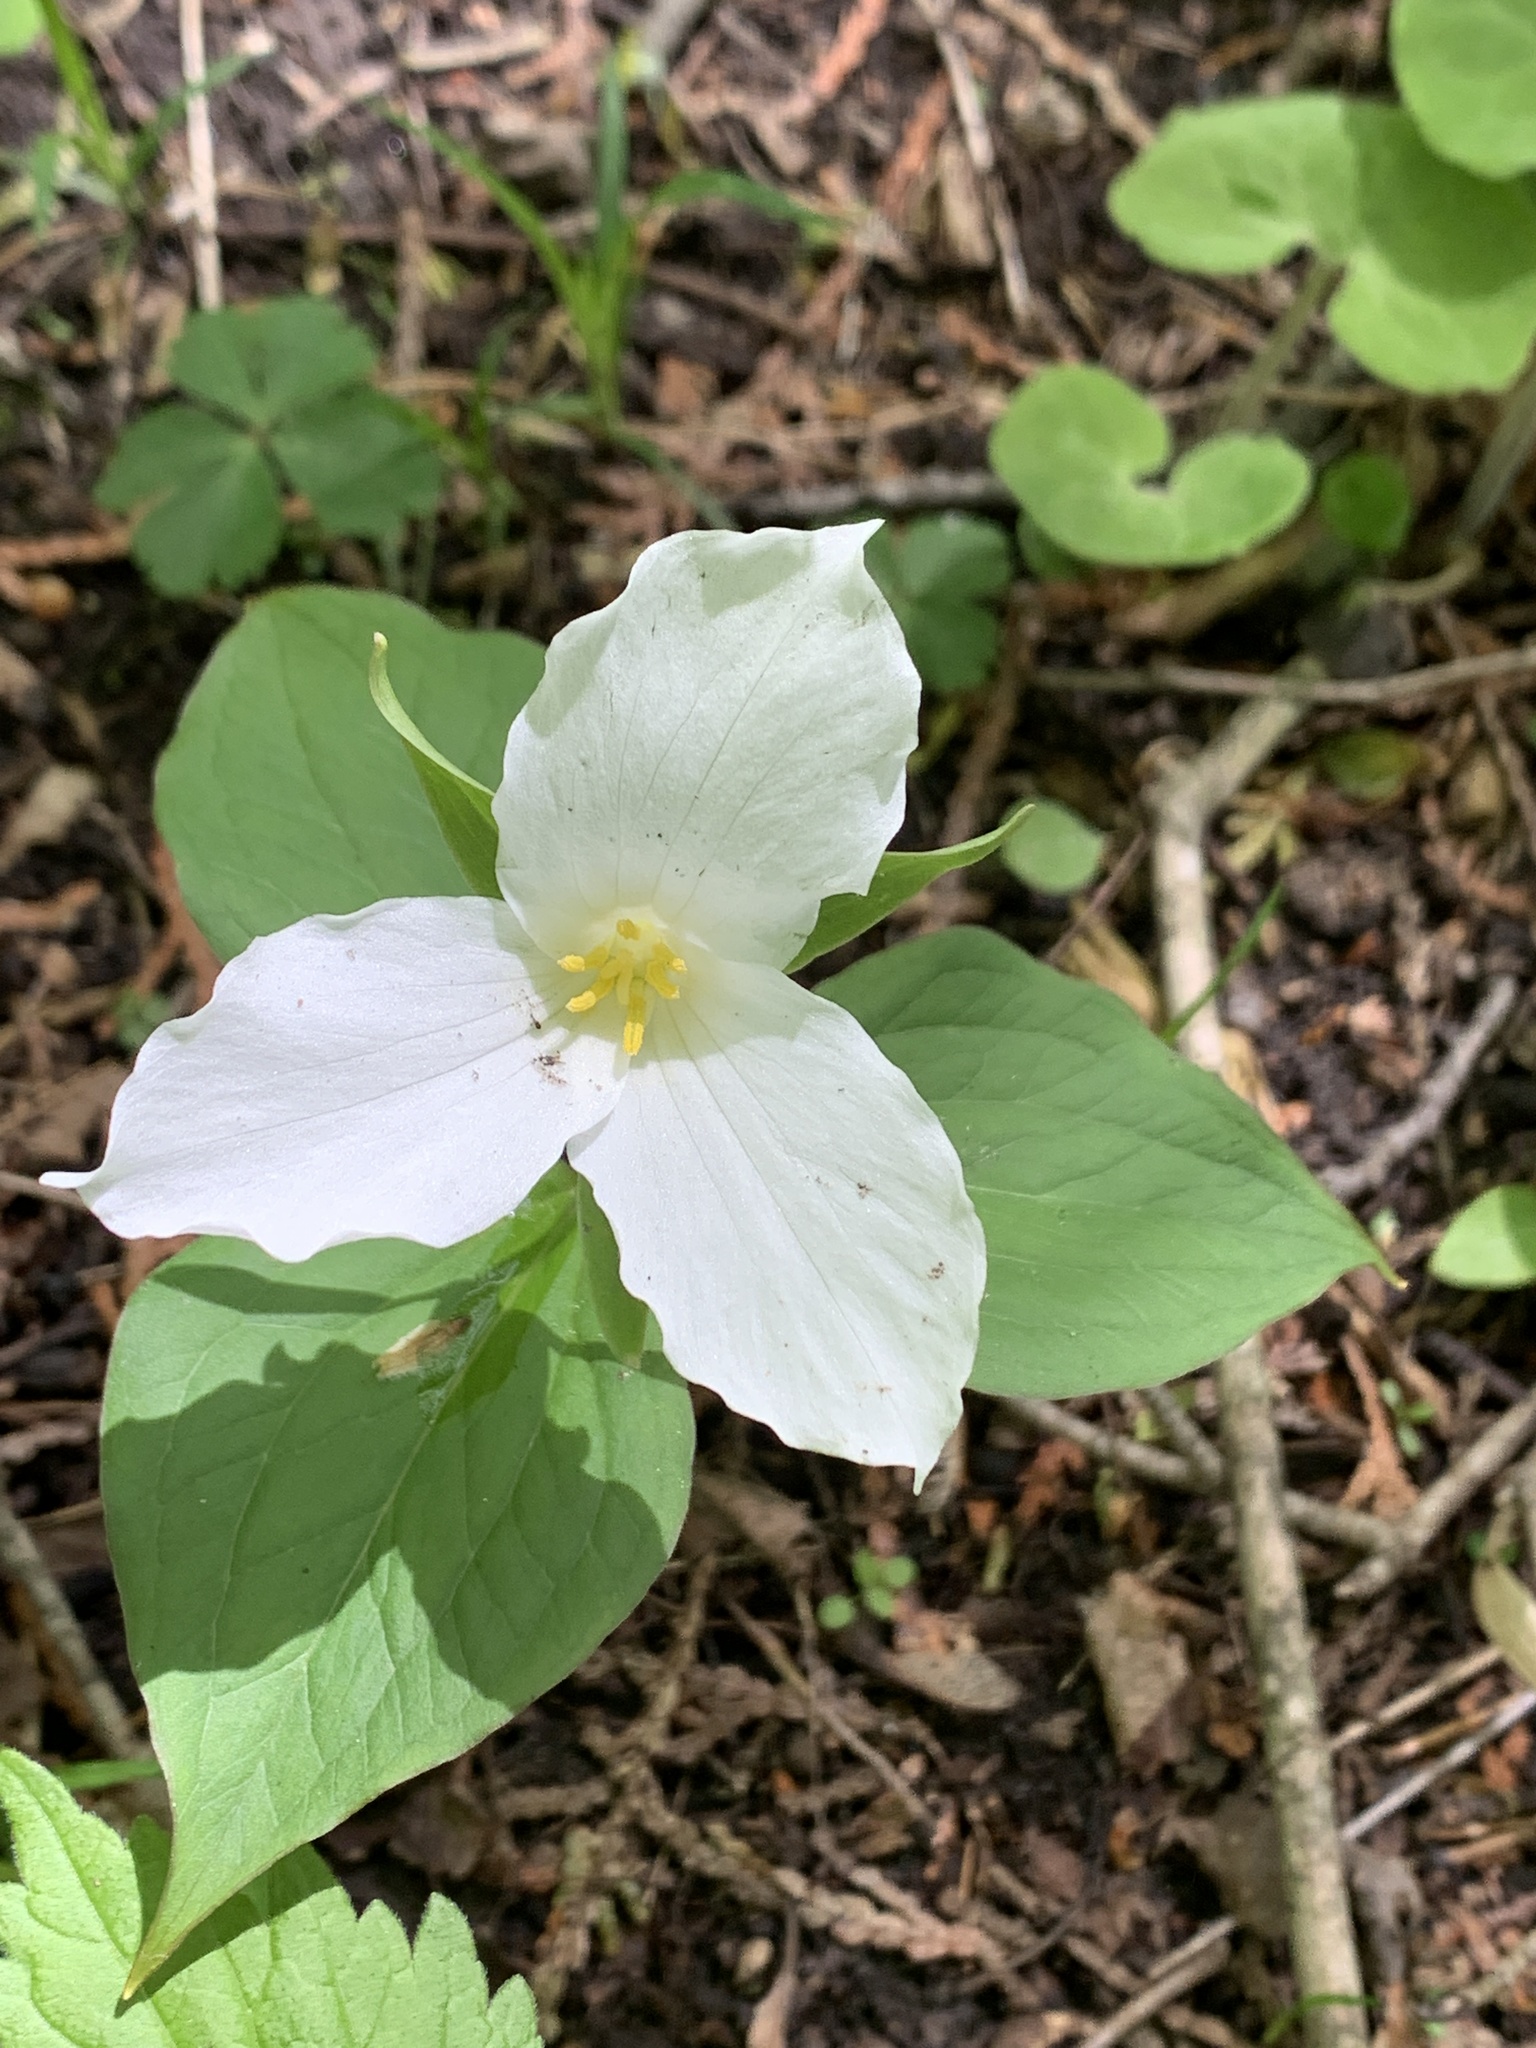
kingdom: Plantae
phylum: Tracheophyta
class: Liliopsida
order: Liliales
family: Melanthiaceae
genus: Trillium
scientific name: Trillium grandiflorum
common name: Great white trillium
